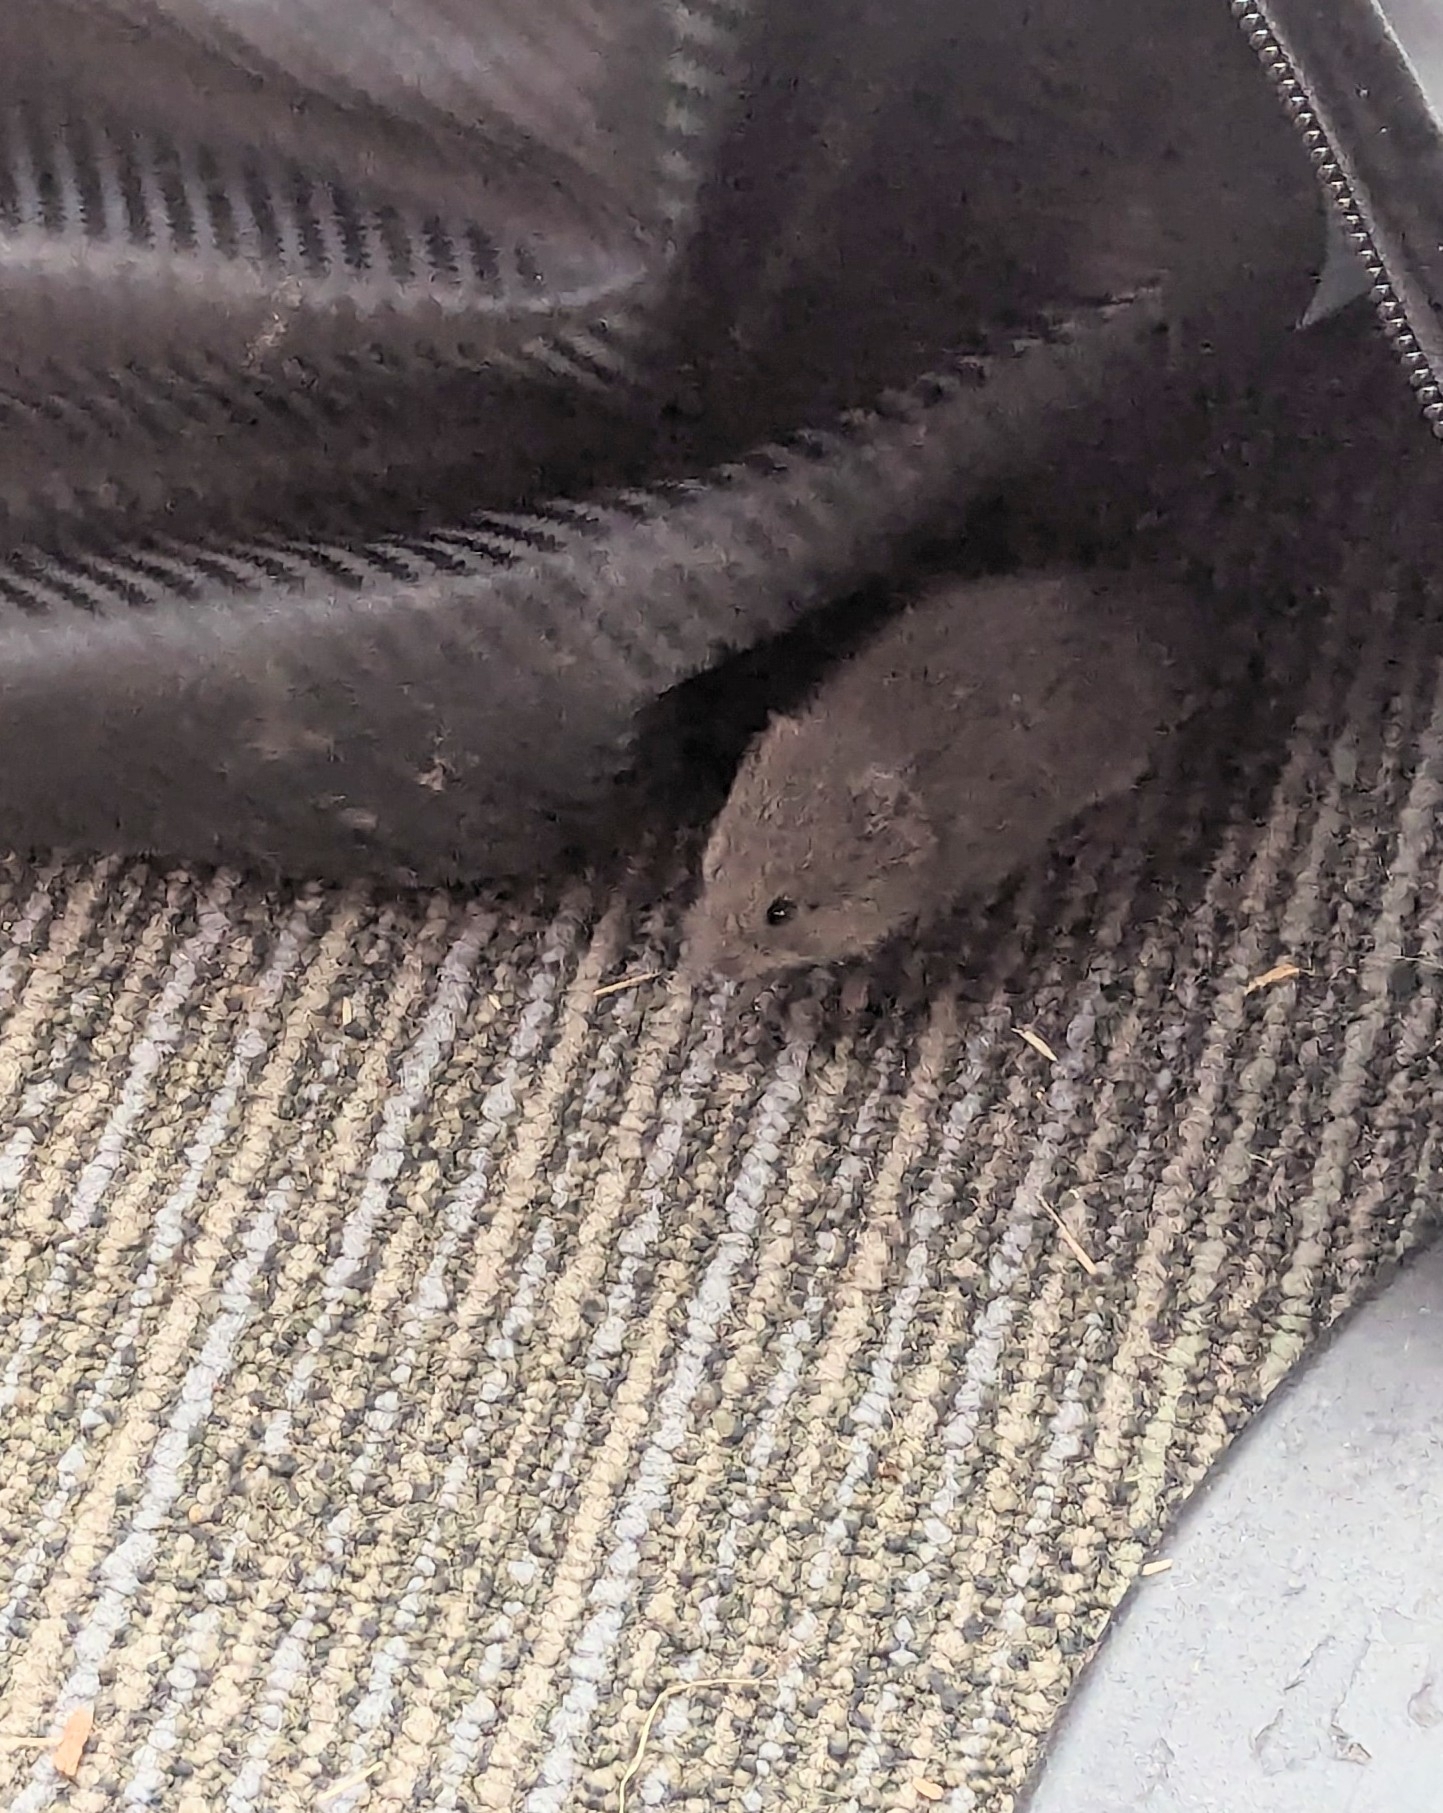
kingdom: Animalia
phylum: Chordata
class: Mammalia
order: Rodentia
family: Cricetidae
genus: Microtus
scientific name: Microtus pennsylvanicus
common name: Meadow vole
